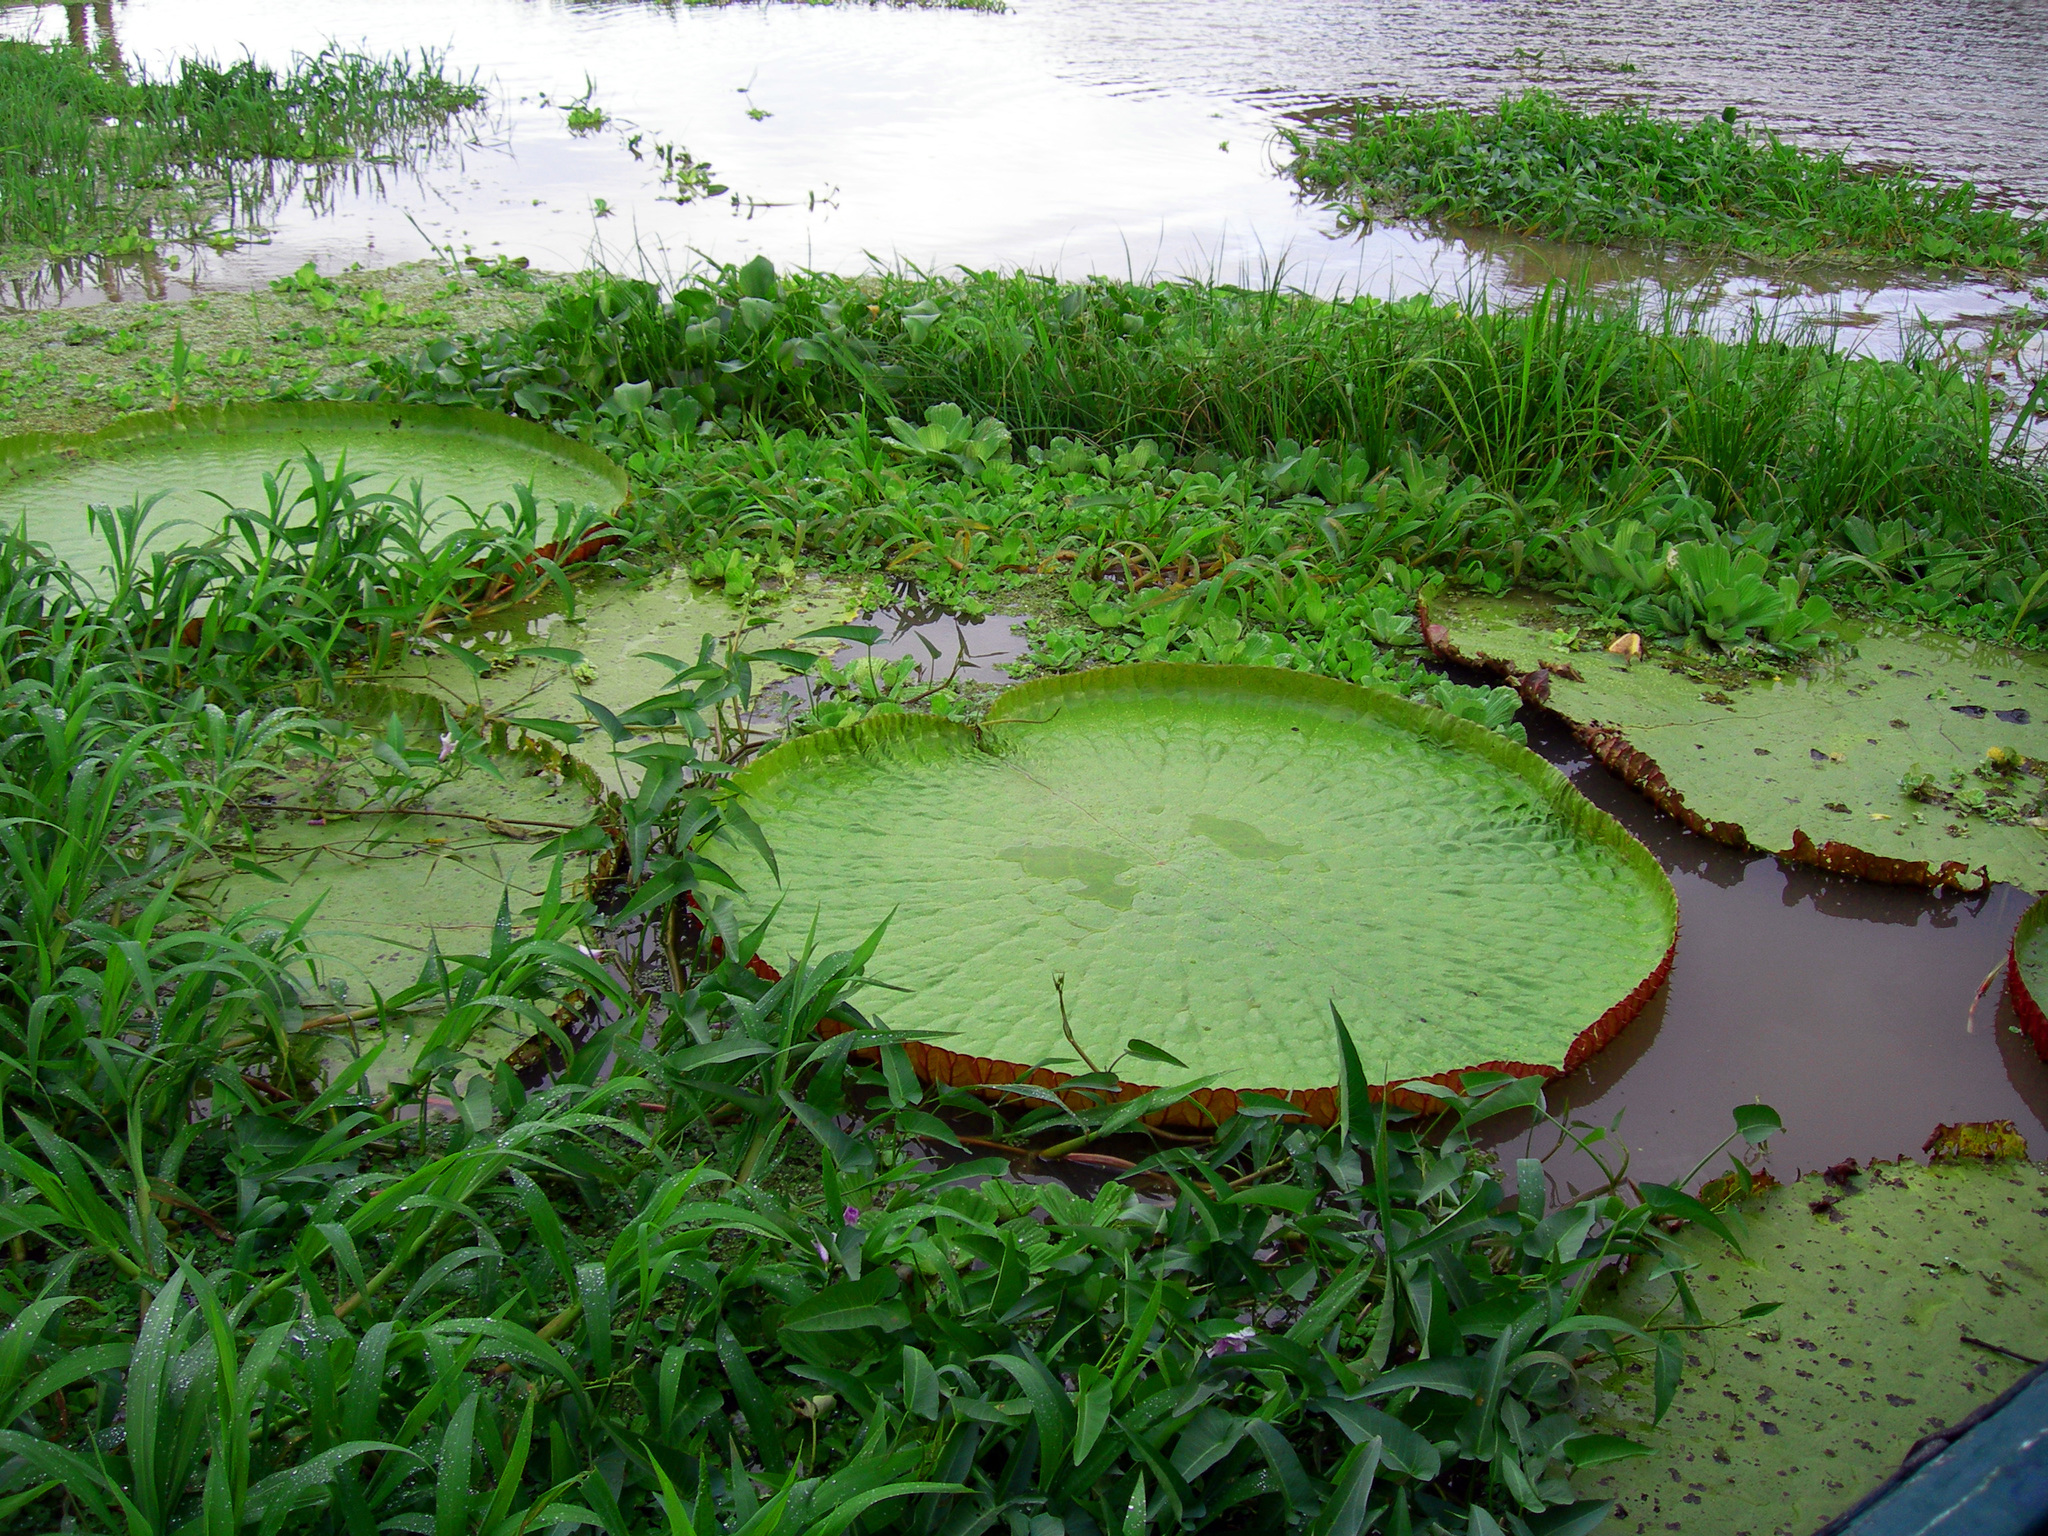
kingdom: Plantae
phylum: Tracheophyta
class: Magnoliopsida
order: Nymphaeales
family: Nymphaeaceae
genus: Victoria
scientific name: Victoria amazonica
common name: Amazon water-lily
